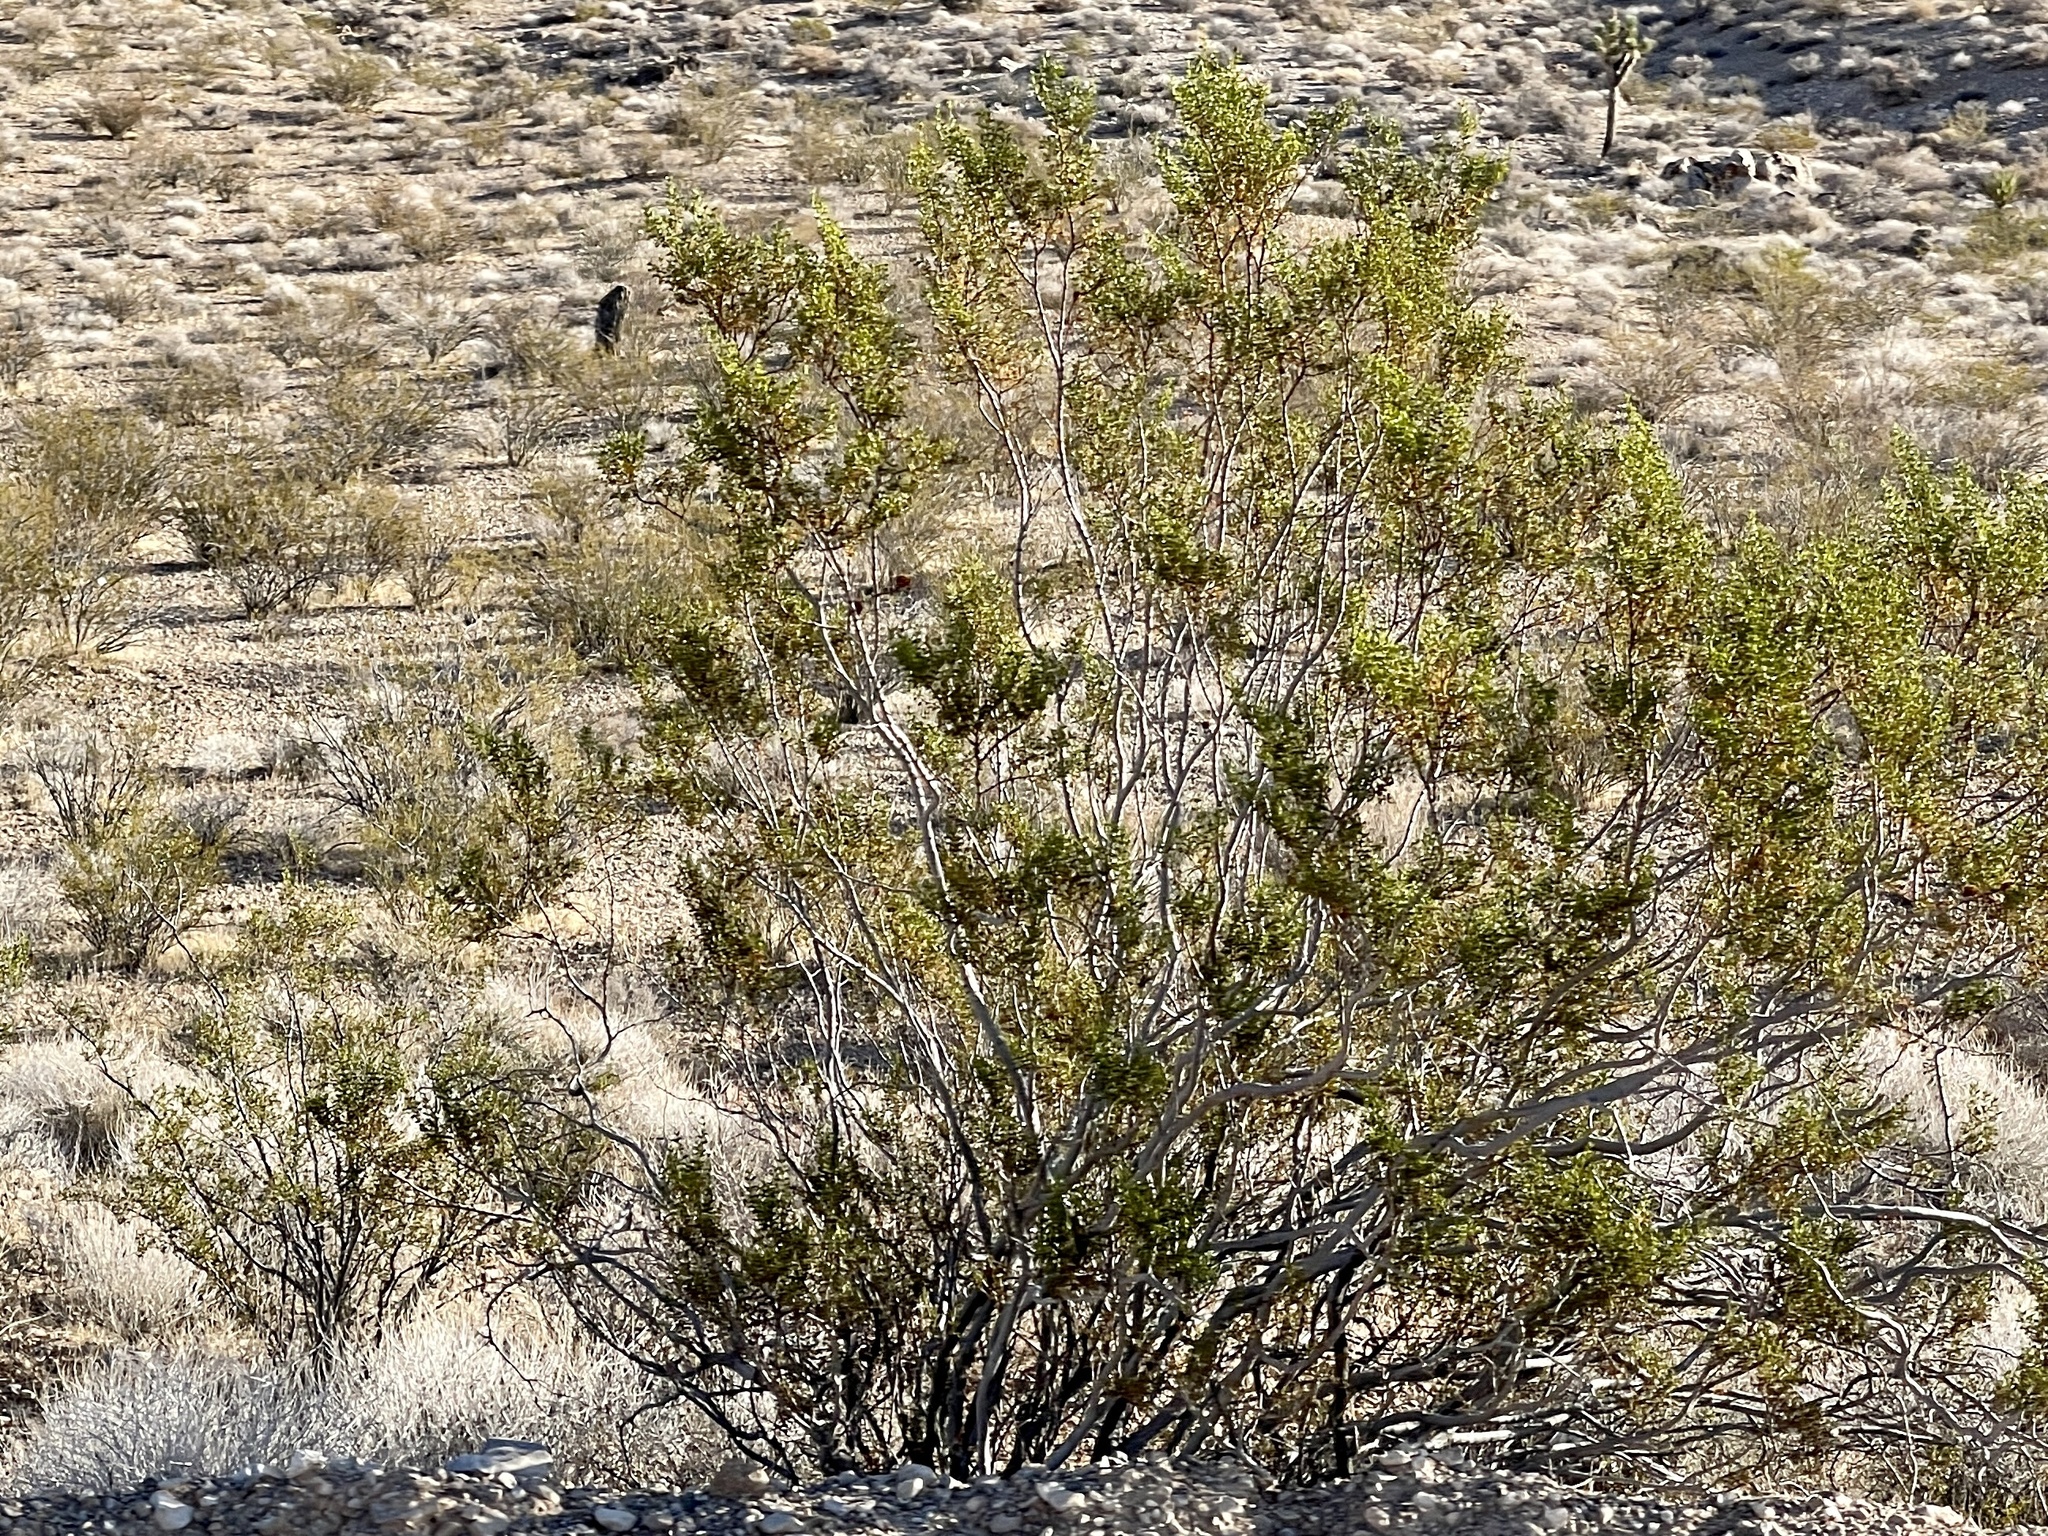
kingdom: Plantae
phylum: Tracheophyta
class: Magnoliopsida
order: Zygophyllales
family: Zygophyllaceae
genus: Larrea
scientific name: Larrea tridentata
